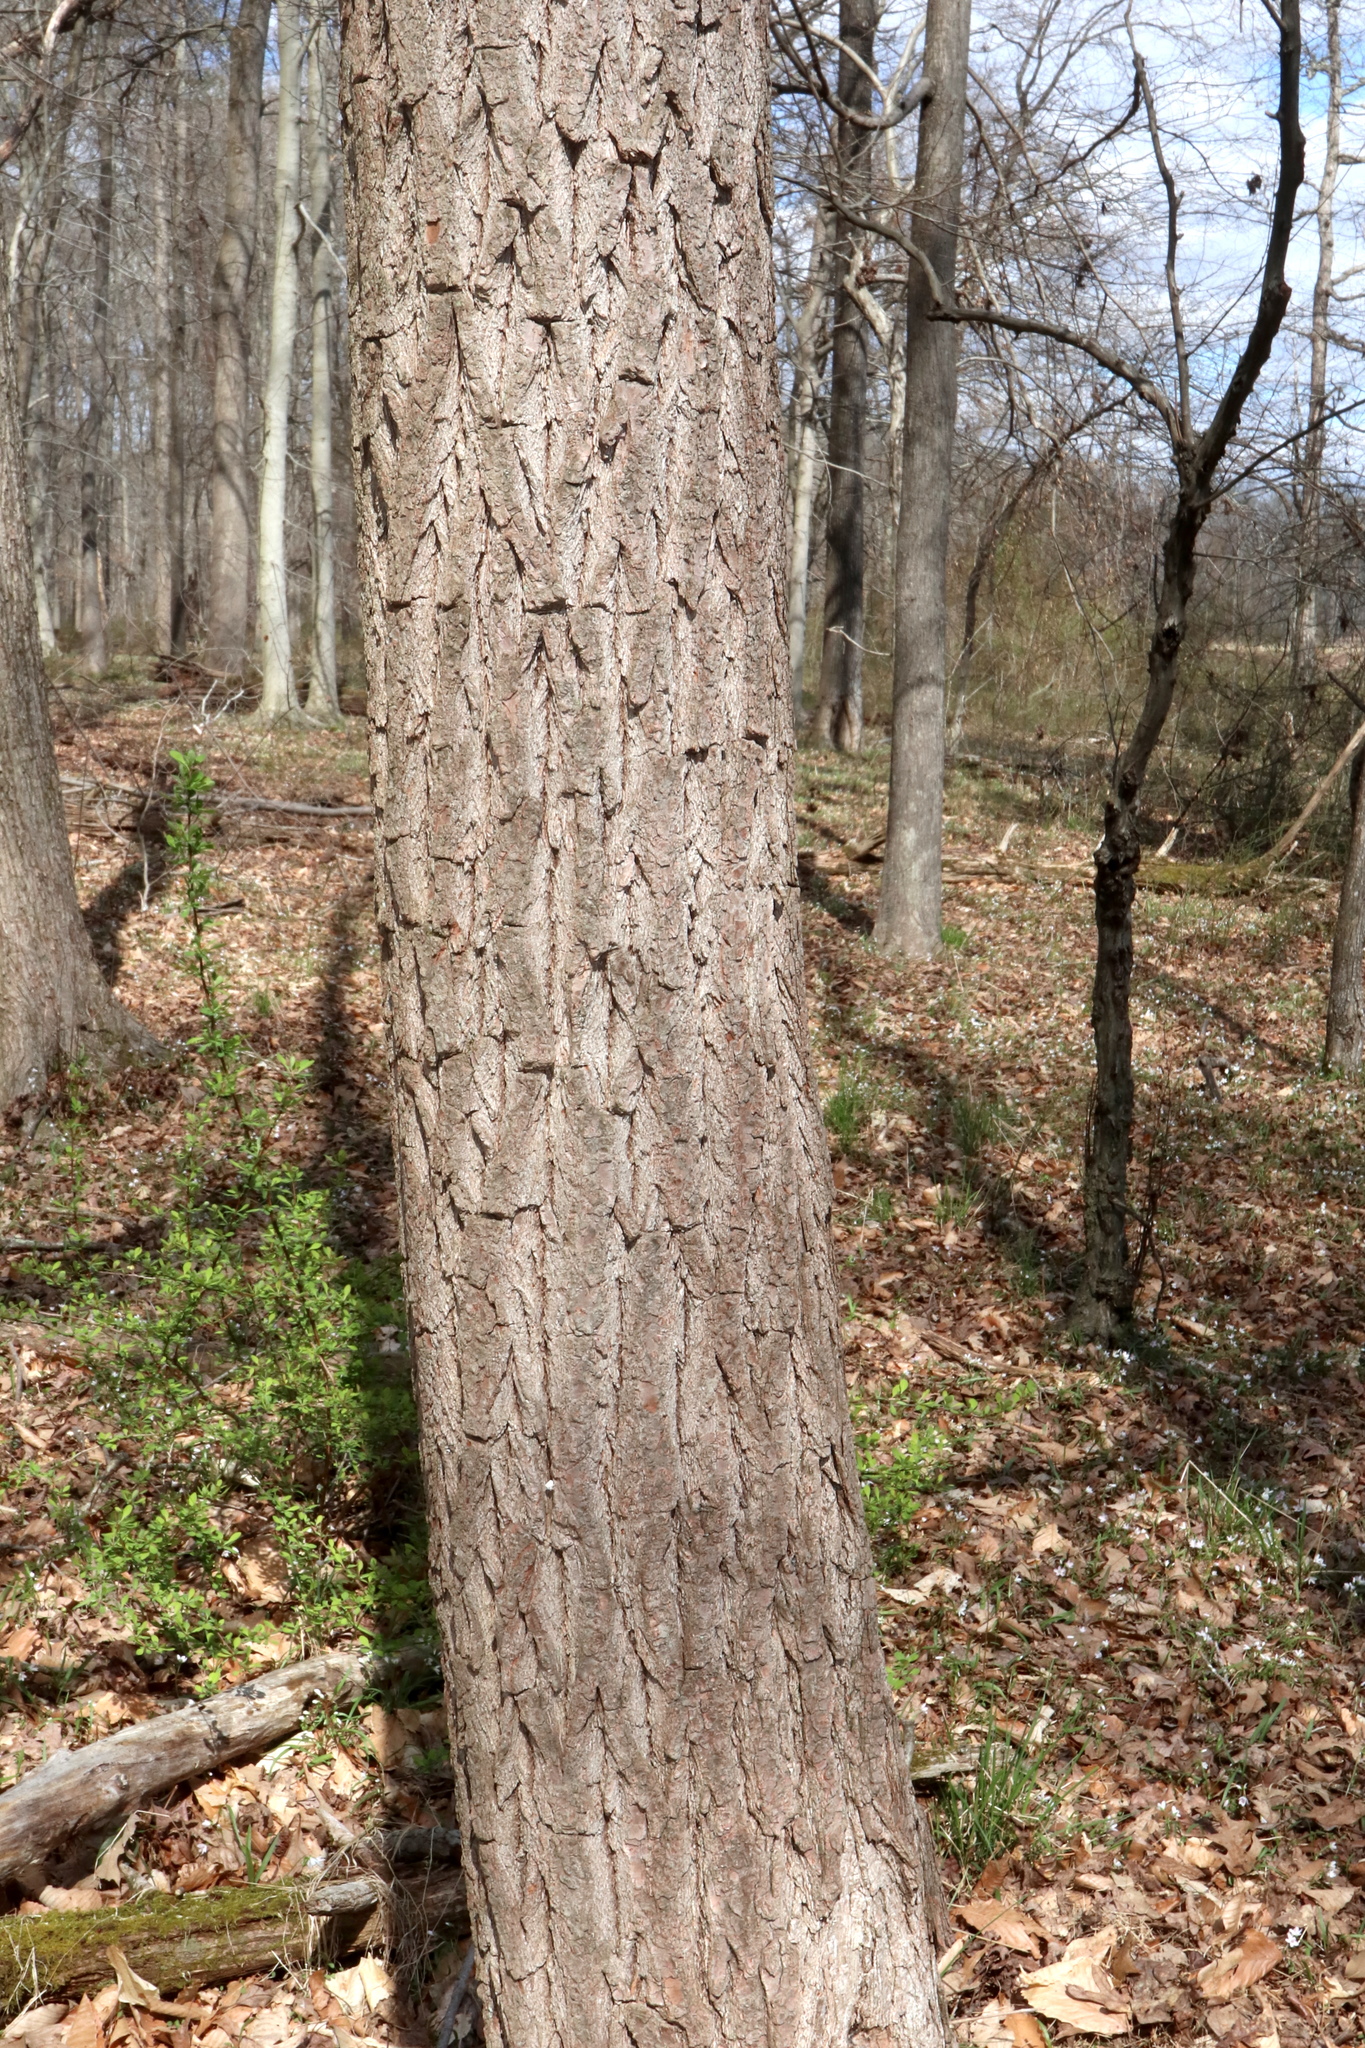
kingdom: Plantae
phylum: Tracheophyta
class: Magnoliopsida
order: Laurales
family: Lauraceae
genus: Sassafras
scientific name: Sassafras albidum
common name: Sassafras
